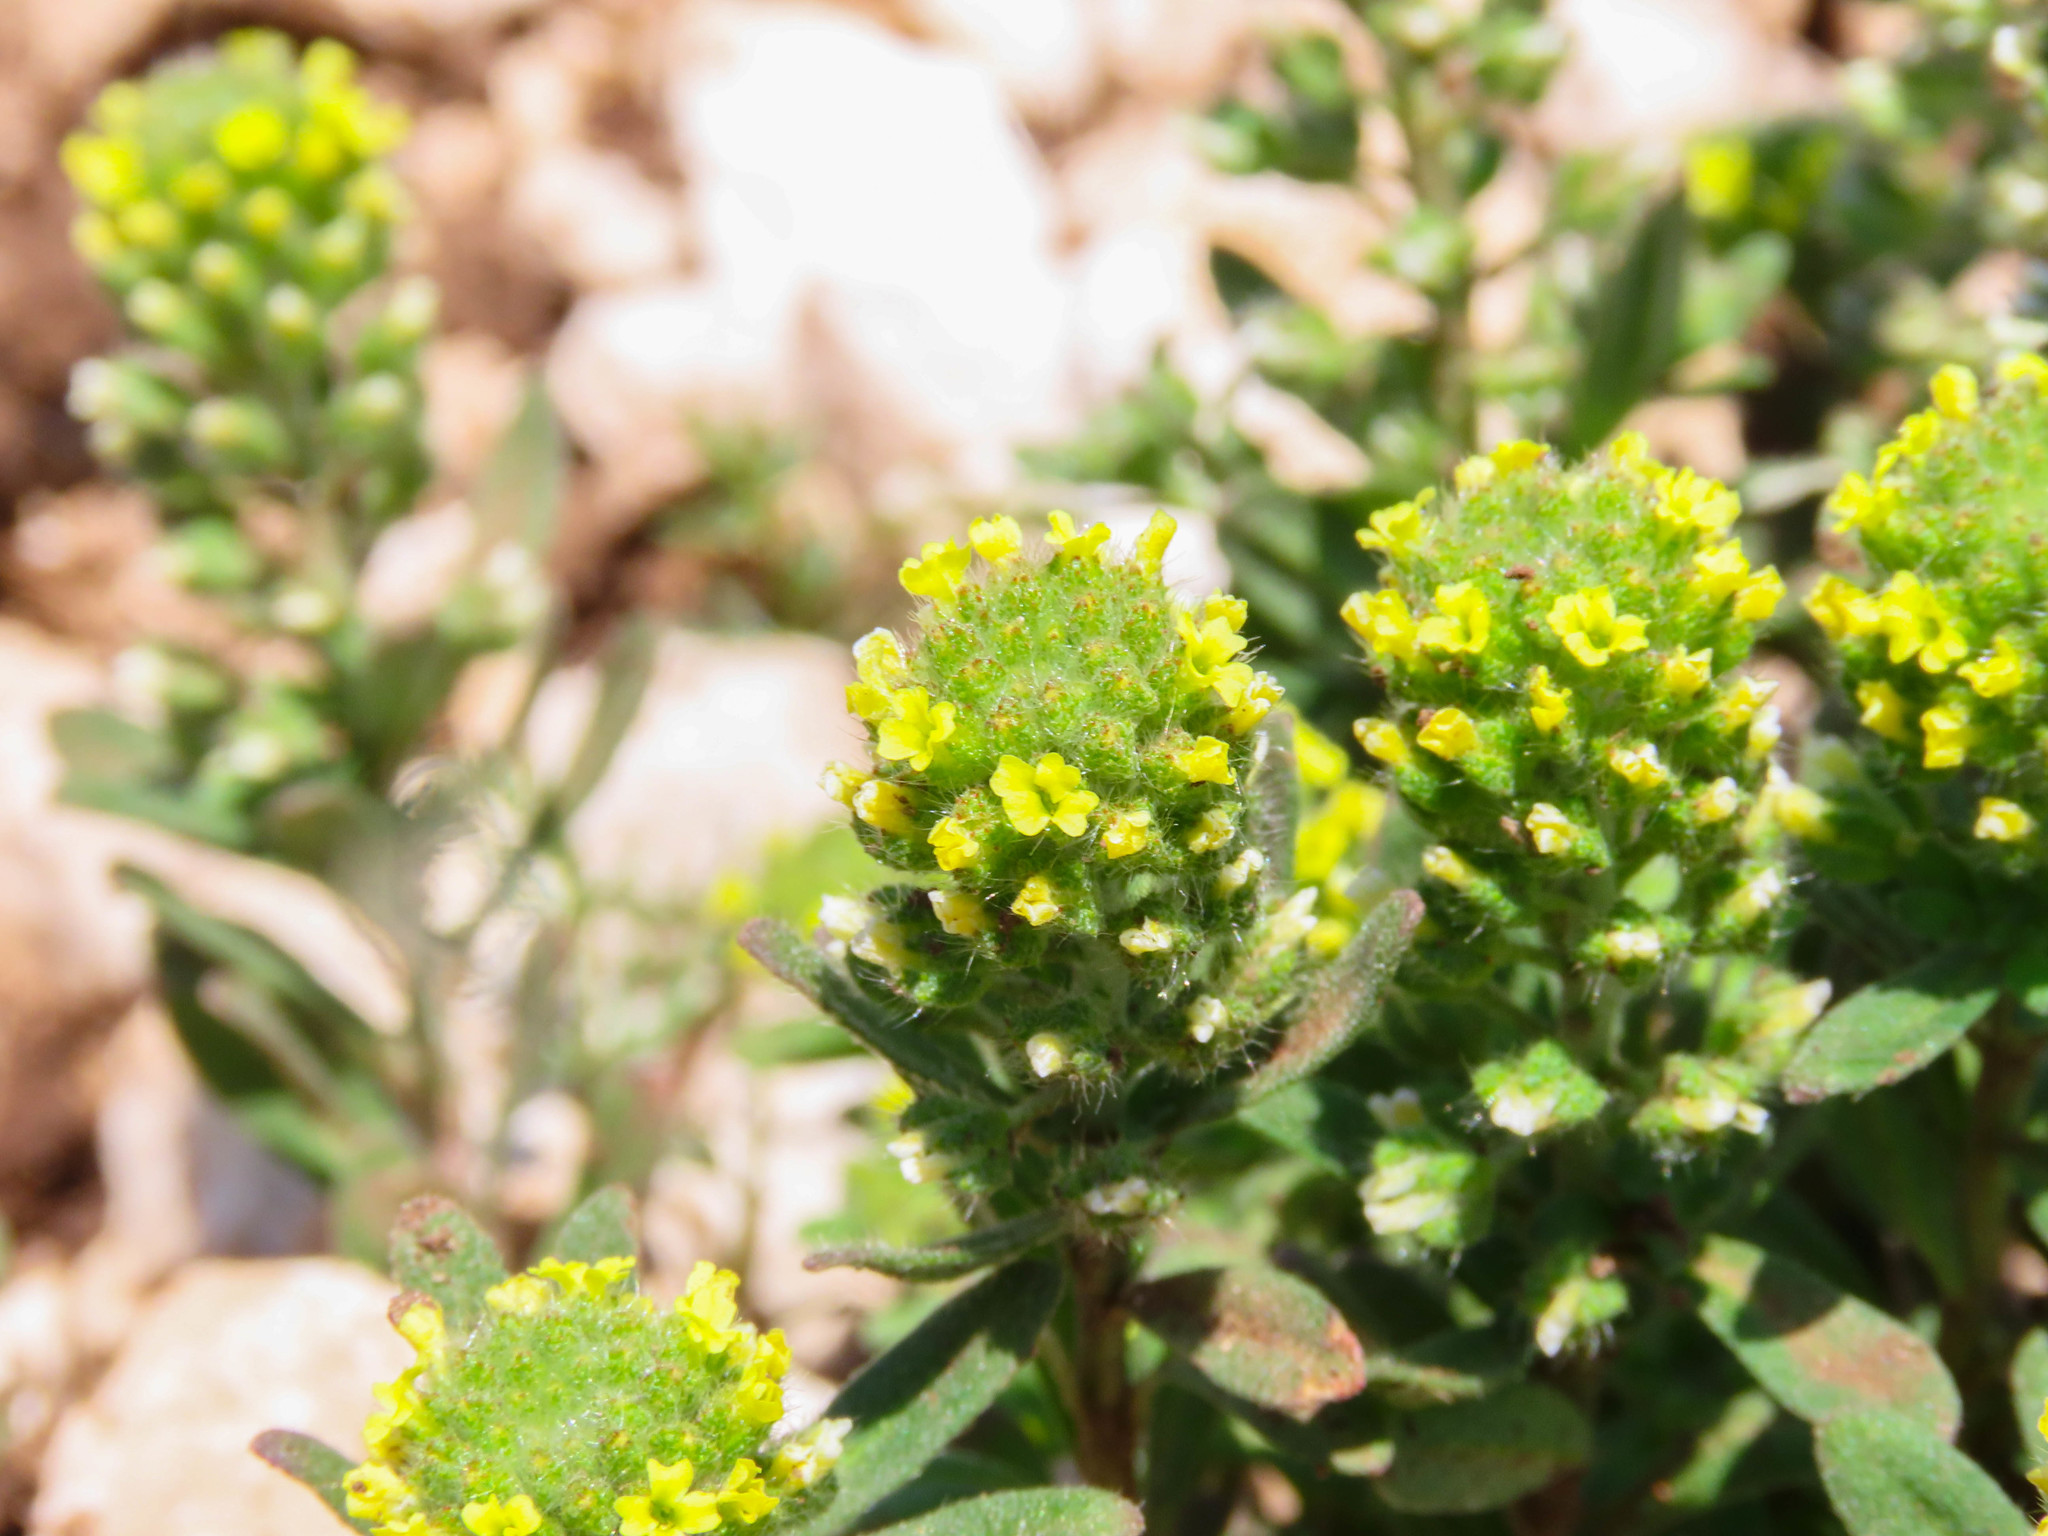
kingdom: Plantae
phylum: Tracheophyta
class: Magnoliopsida
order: Brassicales
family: Brassicaceae
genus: Alyssum
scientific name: Alyssum alyssoides
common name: Small alison
